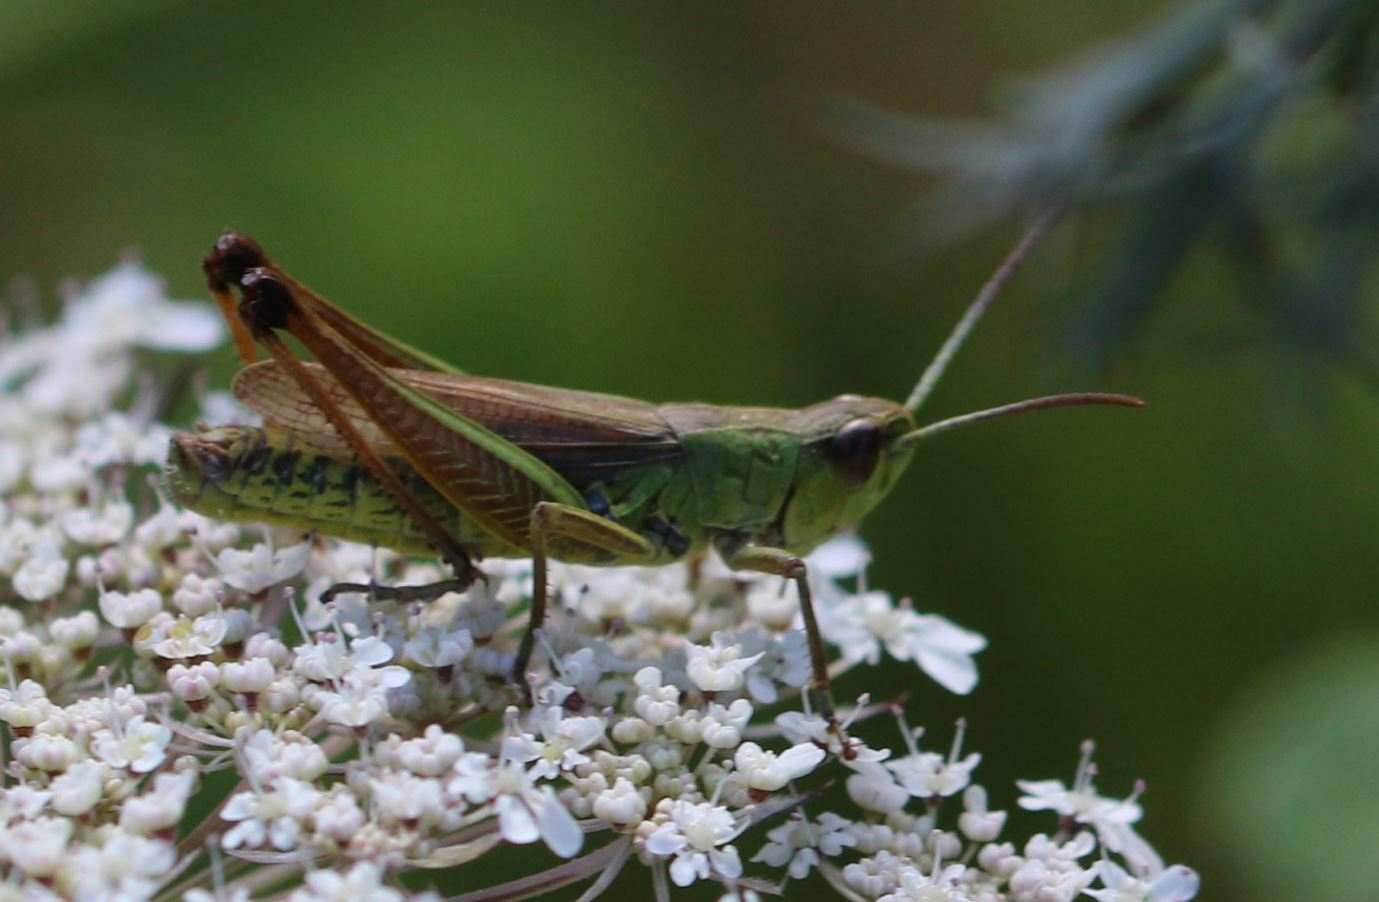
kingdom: Animalia
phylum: Arthropoda
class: Insecta
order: Orthoptera
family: Acrididae
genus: Pseudochorthippus
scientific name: Pseudochorthippus parallelus
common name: Meadow grasshopper
